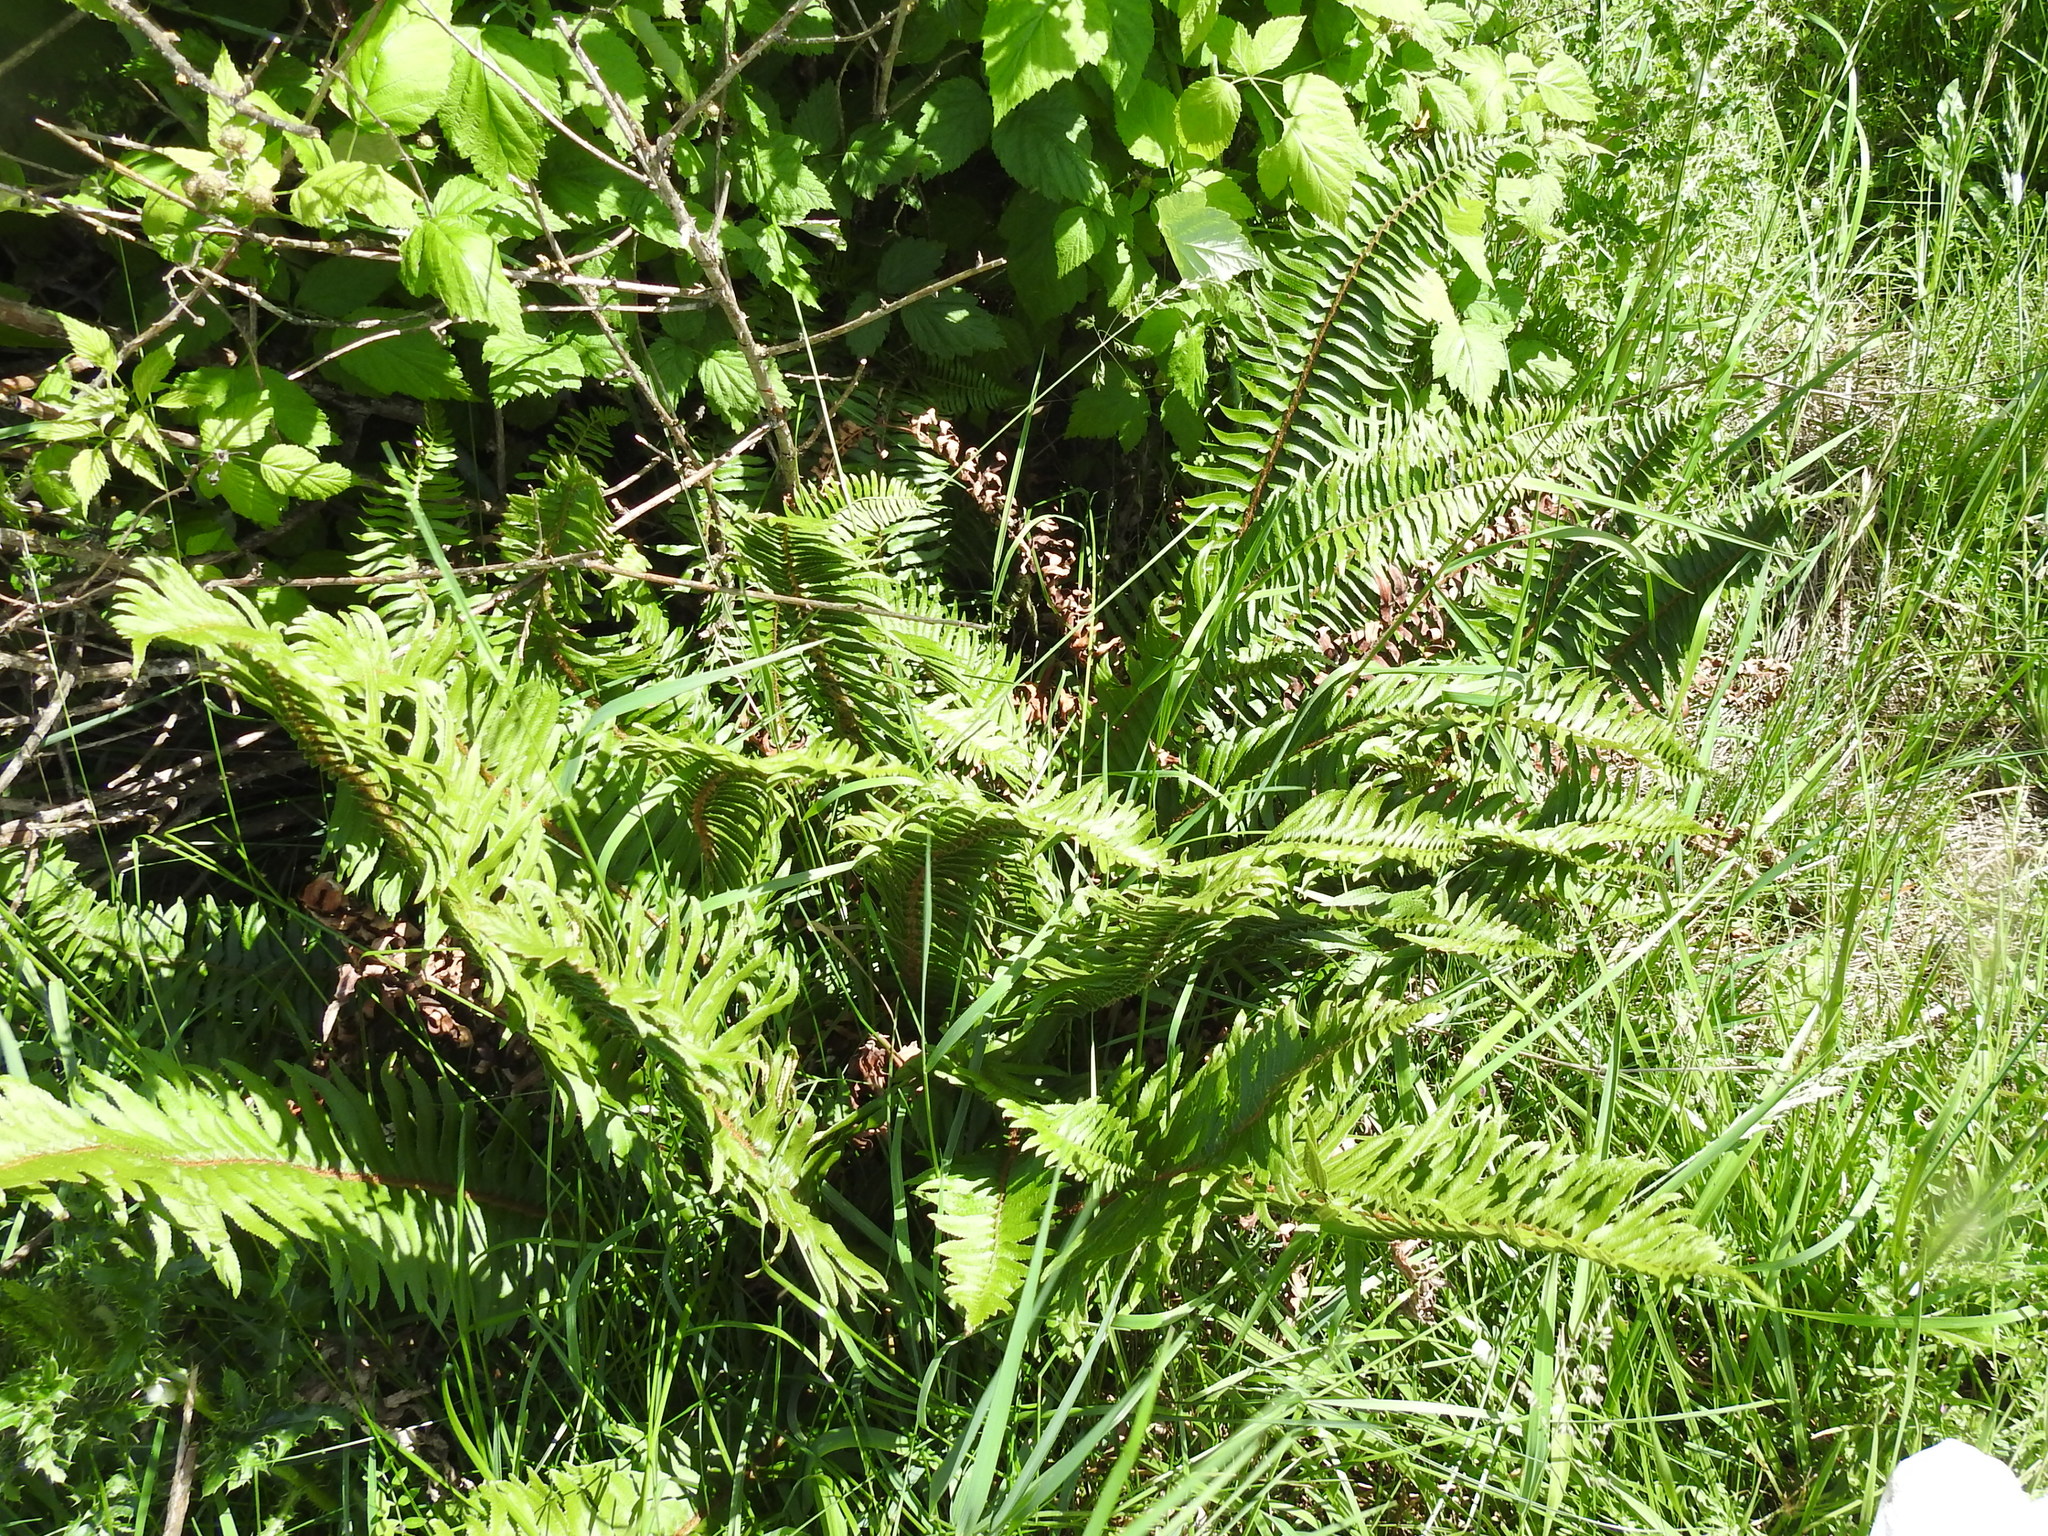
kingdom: Plantae
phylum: Tracheophyta
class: Polypodiopsida
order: Polypodiales
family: Dryopteridaceae
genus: Polystichum
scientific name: Polystichum munitum
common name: Western sword-fern
